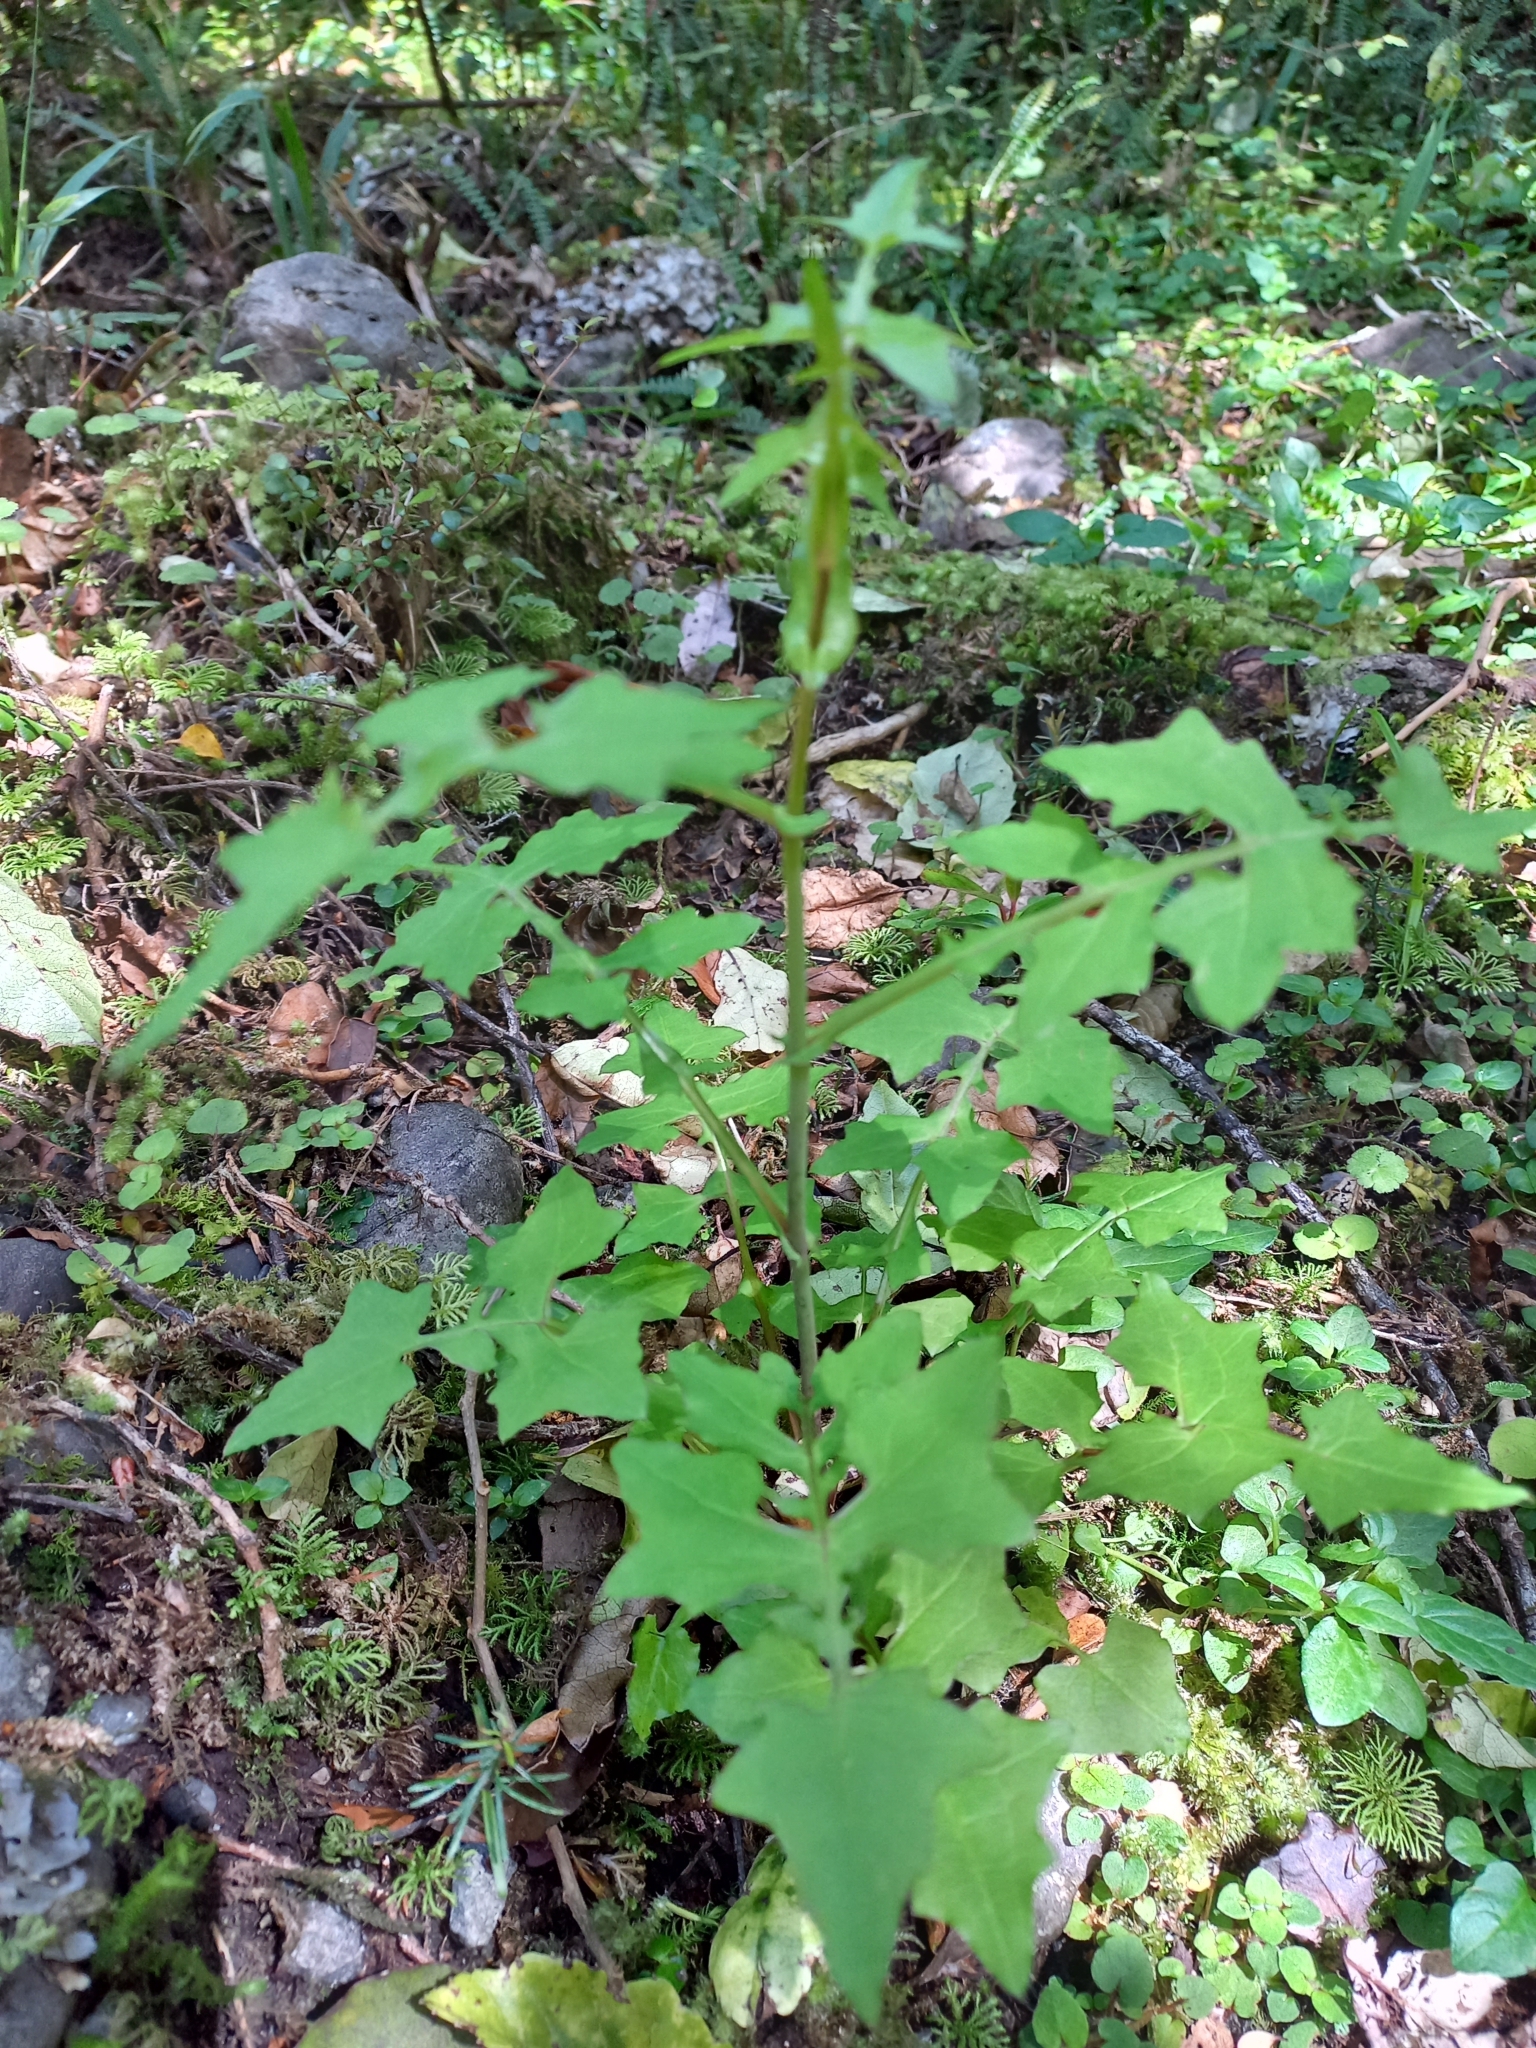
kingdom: Plantae
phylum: Tracheophyta
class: Magnoliopsida
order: Asterales
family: Asteraceae
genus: Mycelis
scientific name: Mycelis muralis
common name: Wall lettuce
